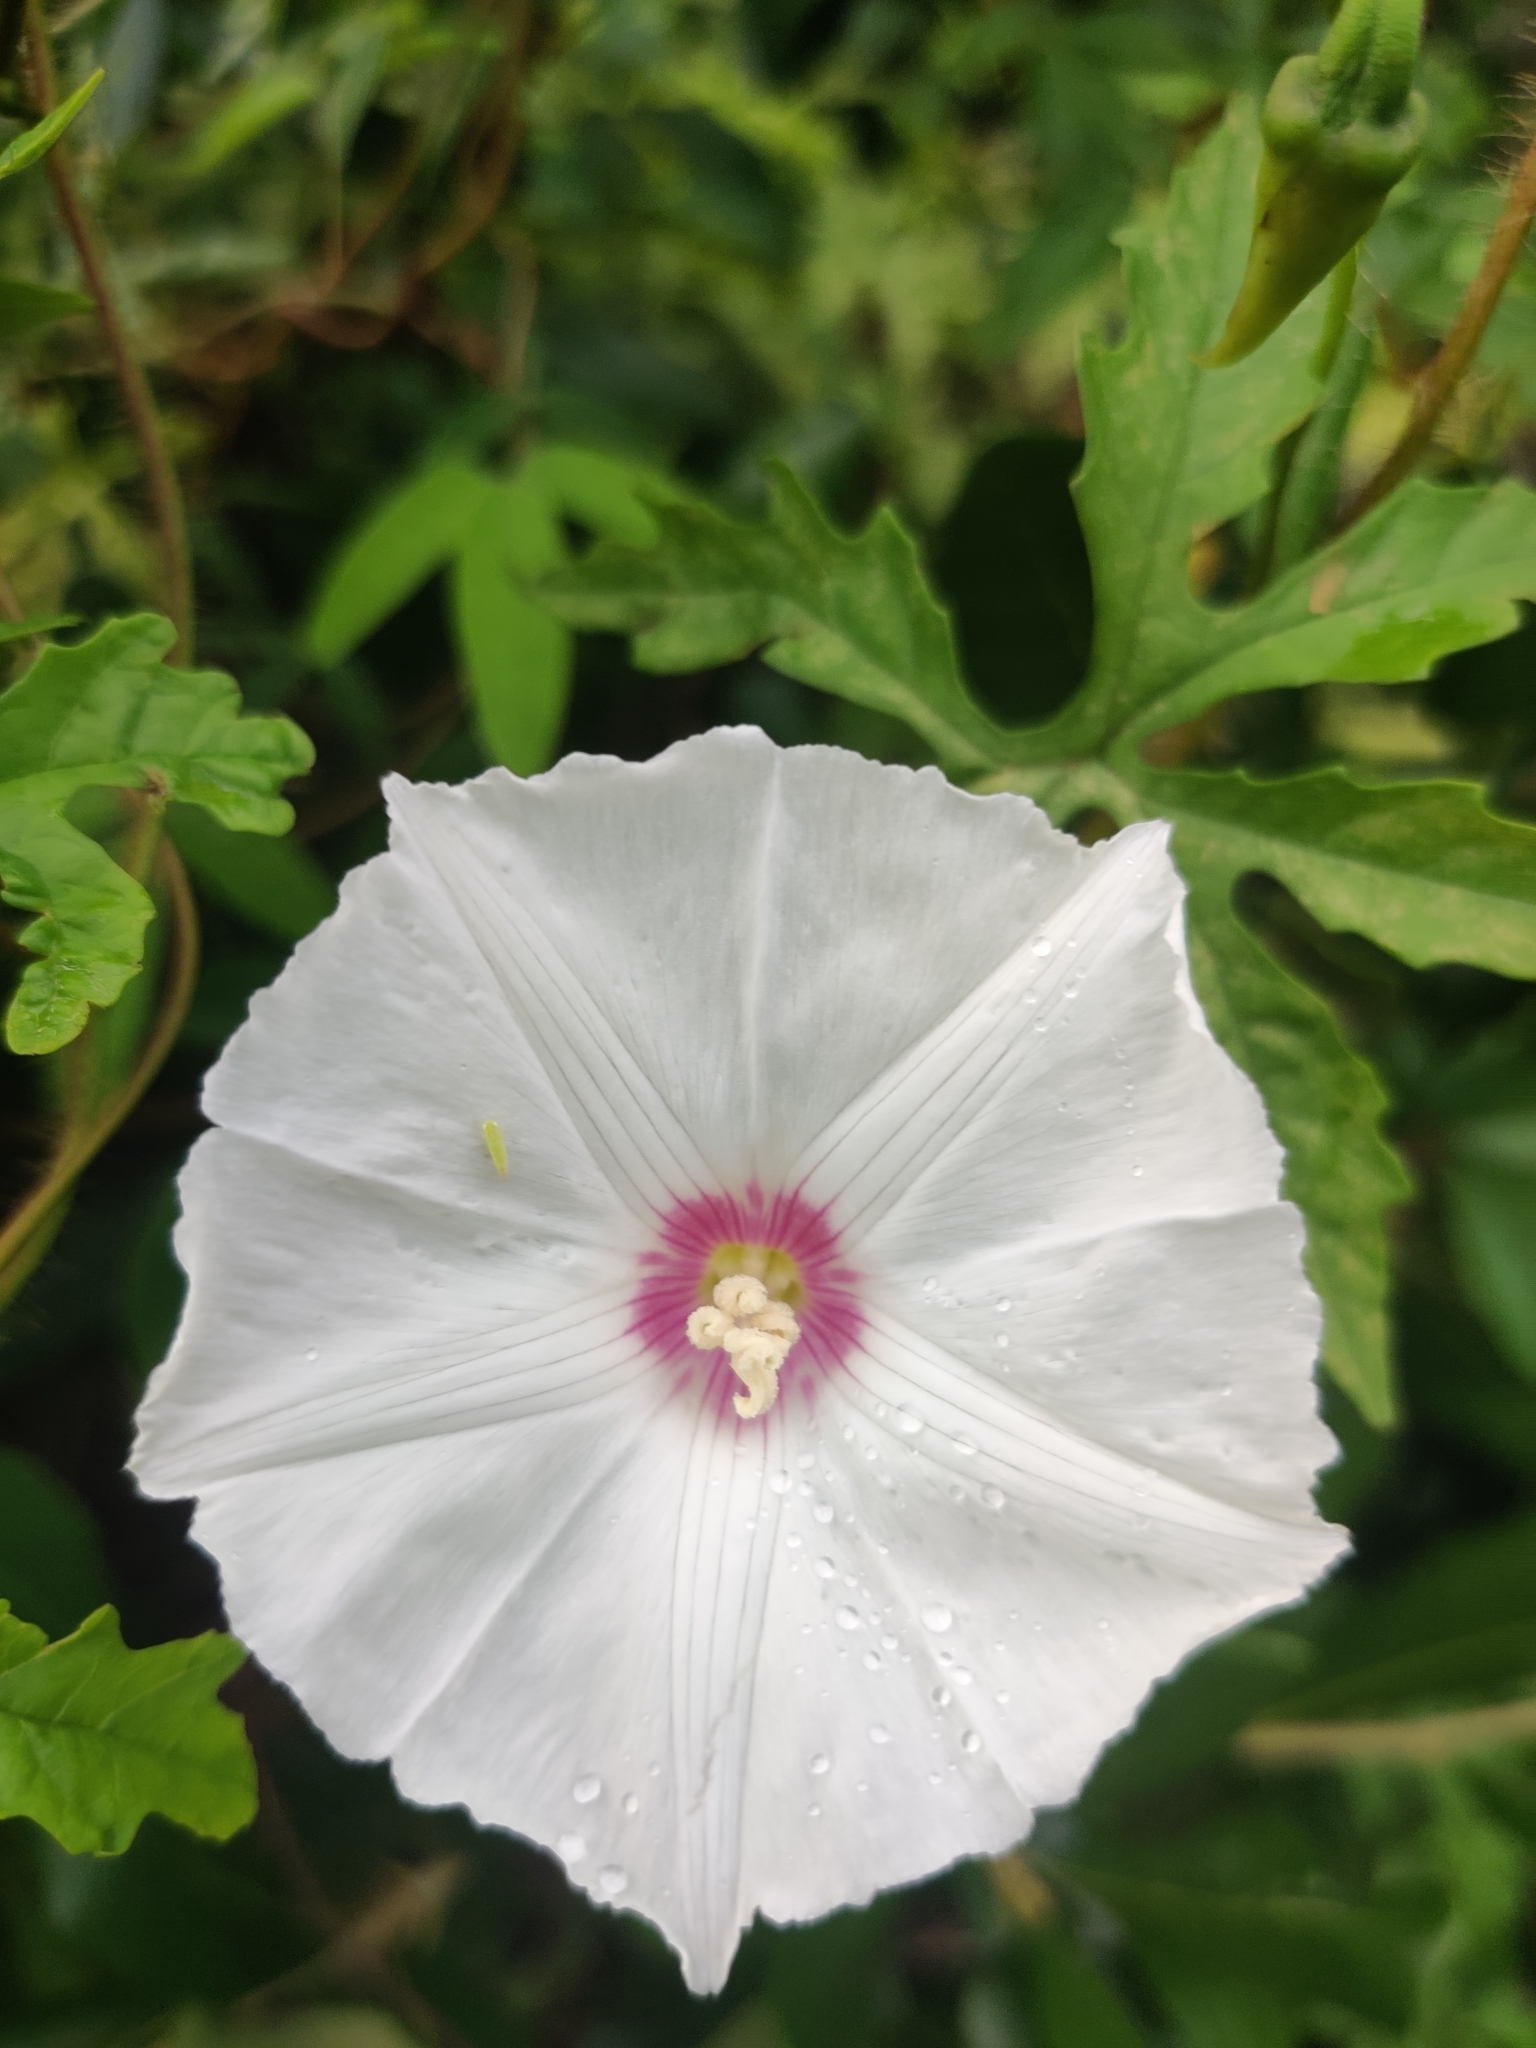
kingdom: Plantae
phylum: Tracheophyta
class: Magnoliopsida
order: Solanales
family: Convolvulaceae
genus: Distimake
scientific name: Distimake dissectus
